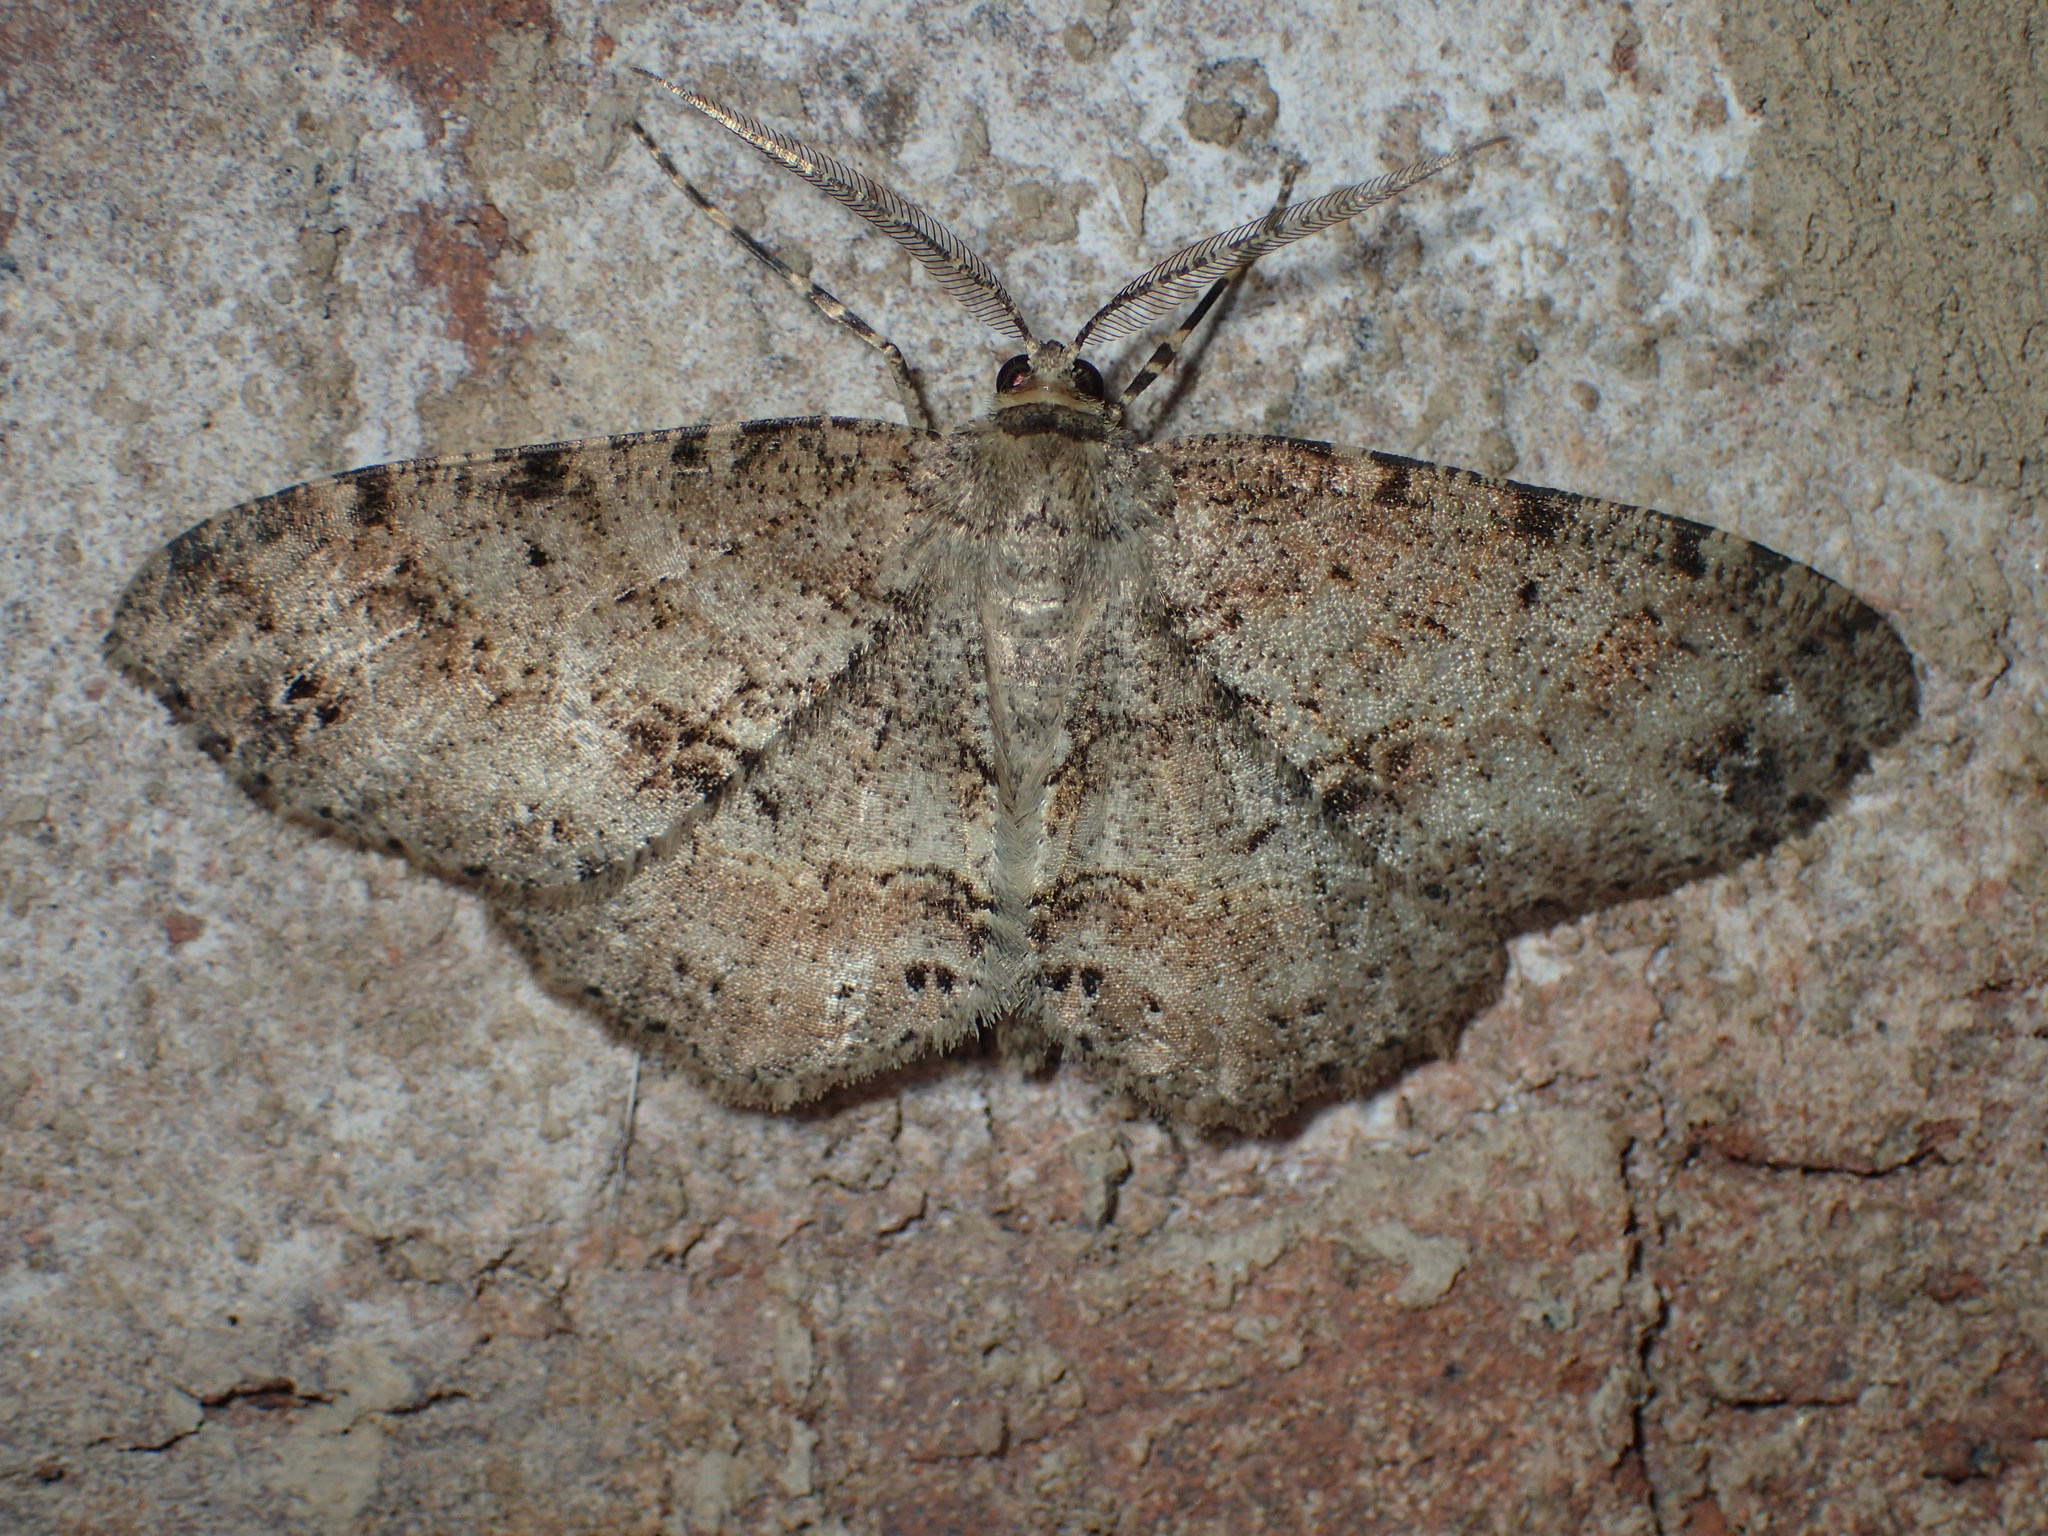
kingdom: Animalia
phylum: Arthropoda
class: Insecta
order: Lepidoptera
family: Geometridae
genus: Melanolophia
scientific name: Melanolophia canadaria
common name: Canadian melanolophia
